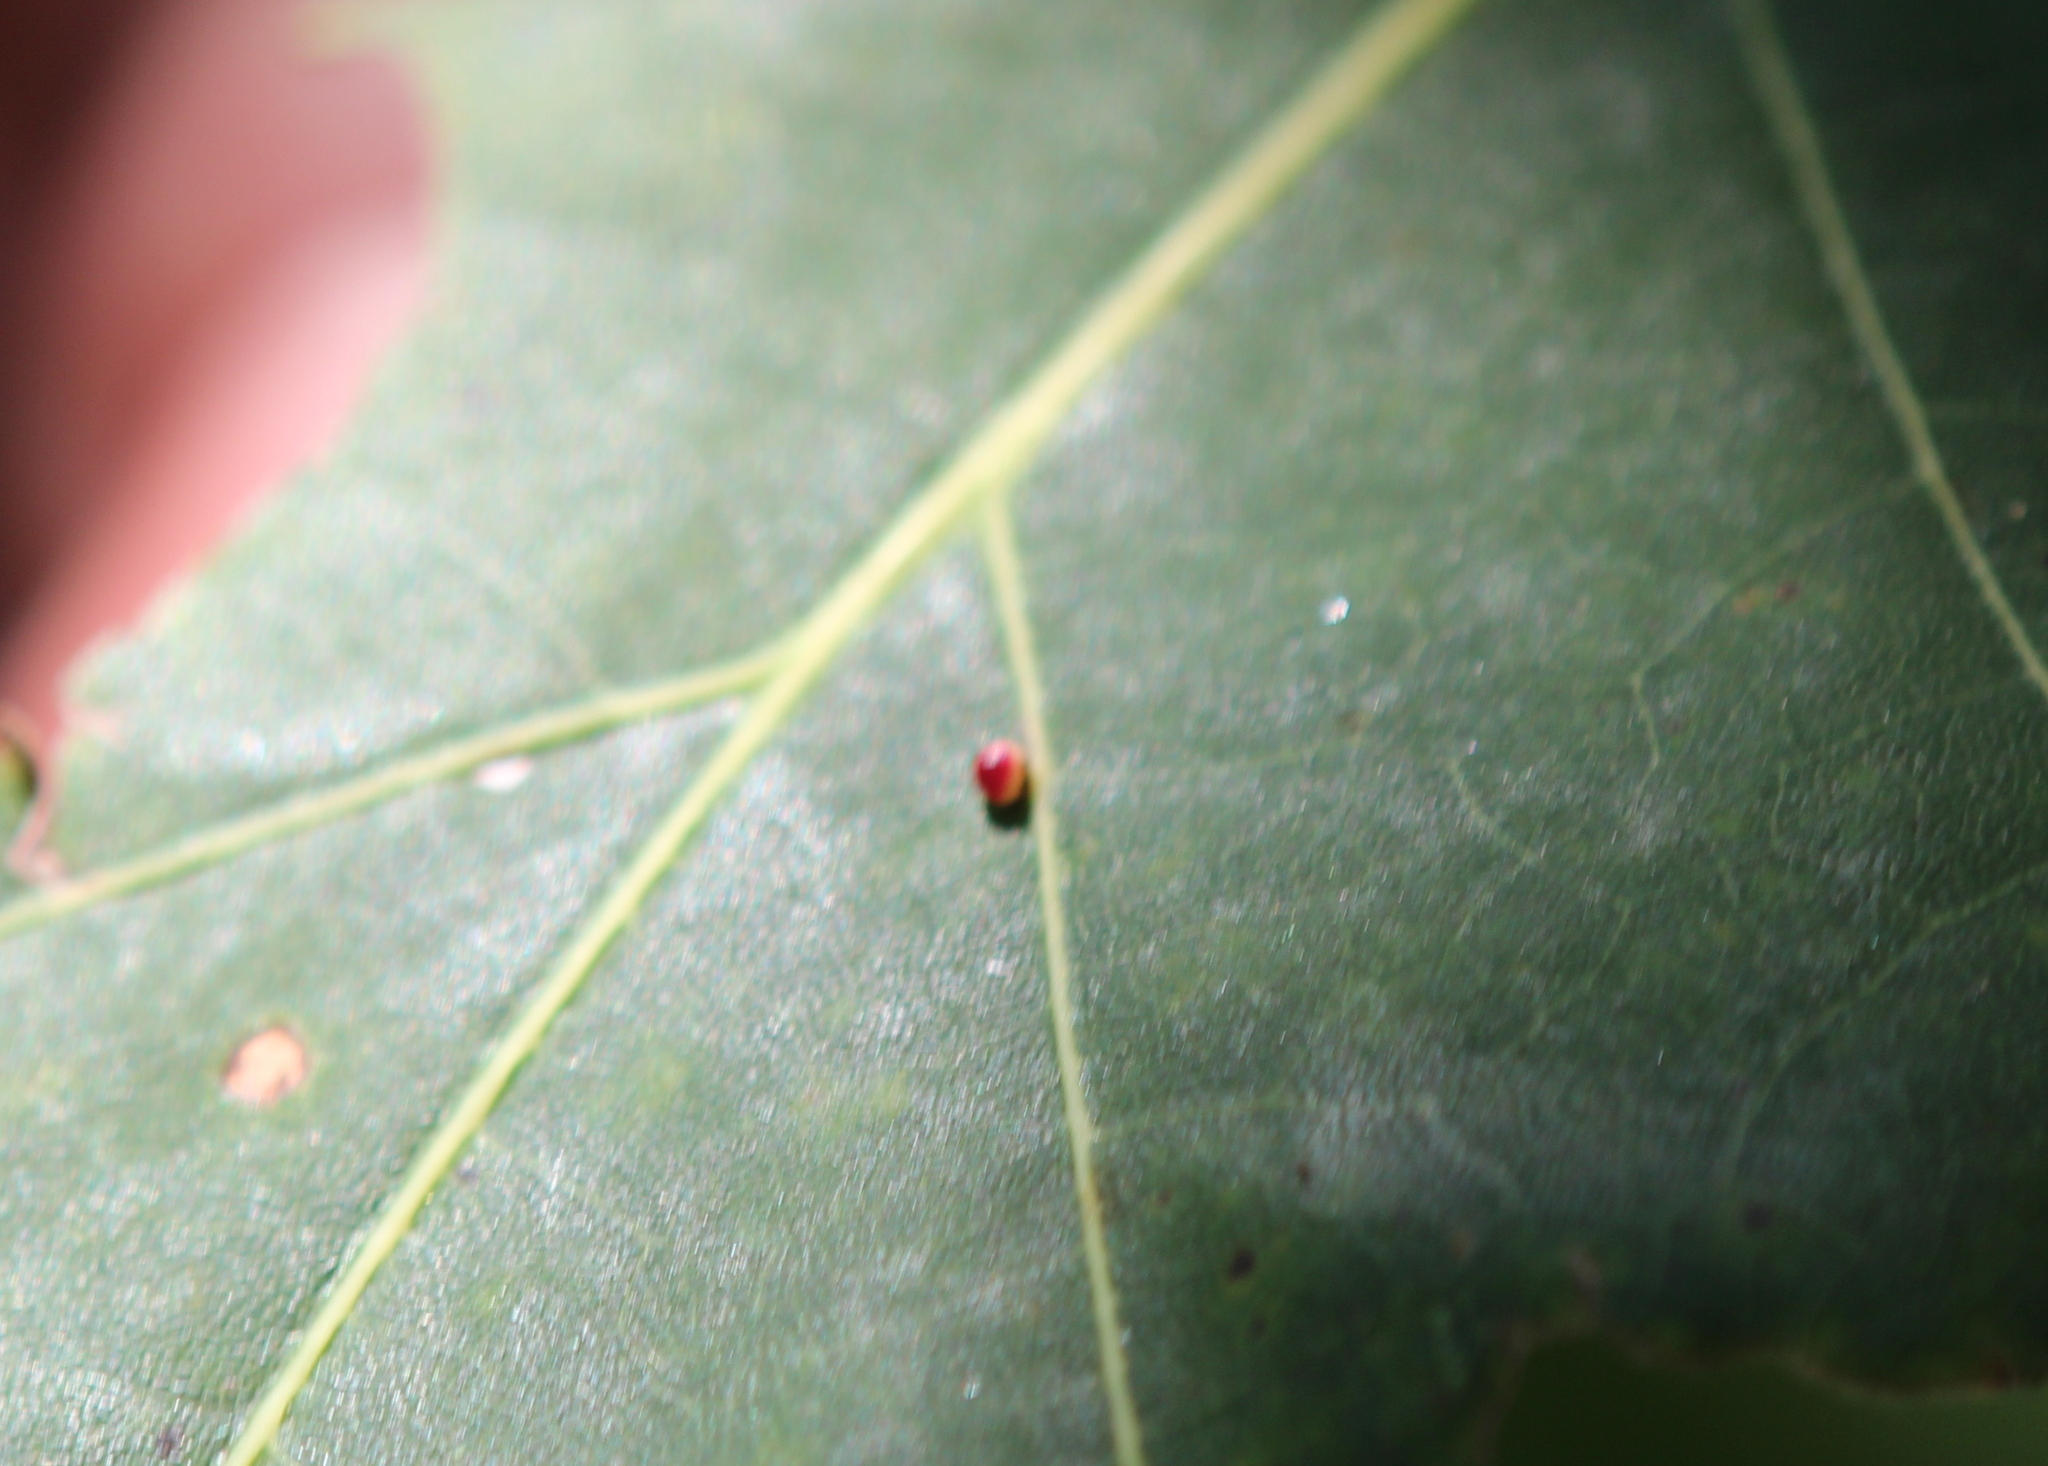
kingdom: Animalia
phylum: Arthropoda
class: Insecta
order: Hymenoptera
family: Cynipidae
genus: Zopheroteras
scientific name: Zopheroteras
